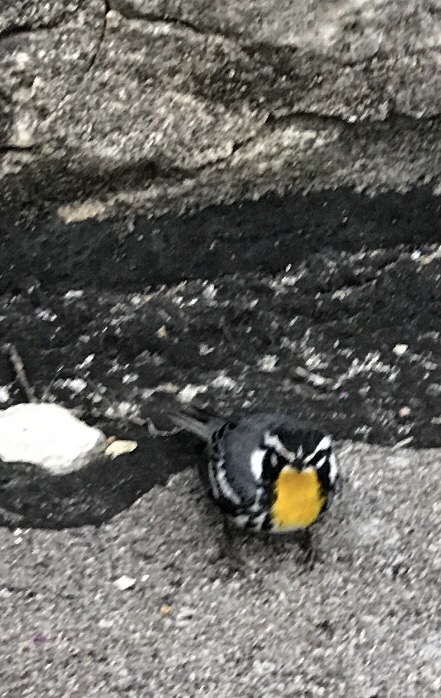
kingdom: Animalia
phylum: Chordata
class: Aves
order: Passeriformes
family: Parulidae
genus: Setophaga
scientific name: Setophaga dominica
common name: Yellow-throated warbler
